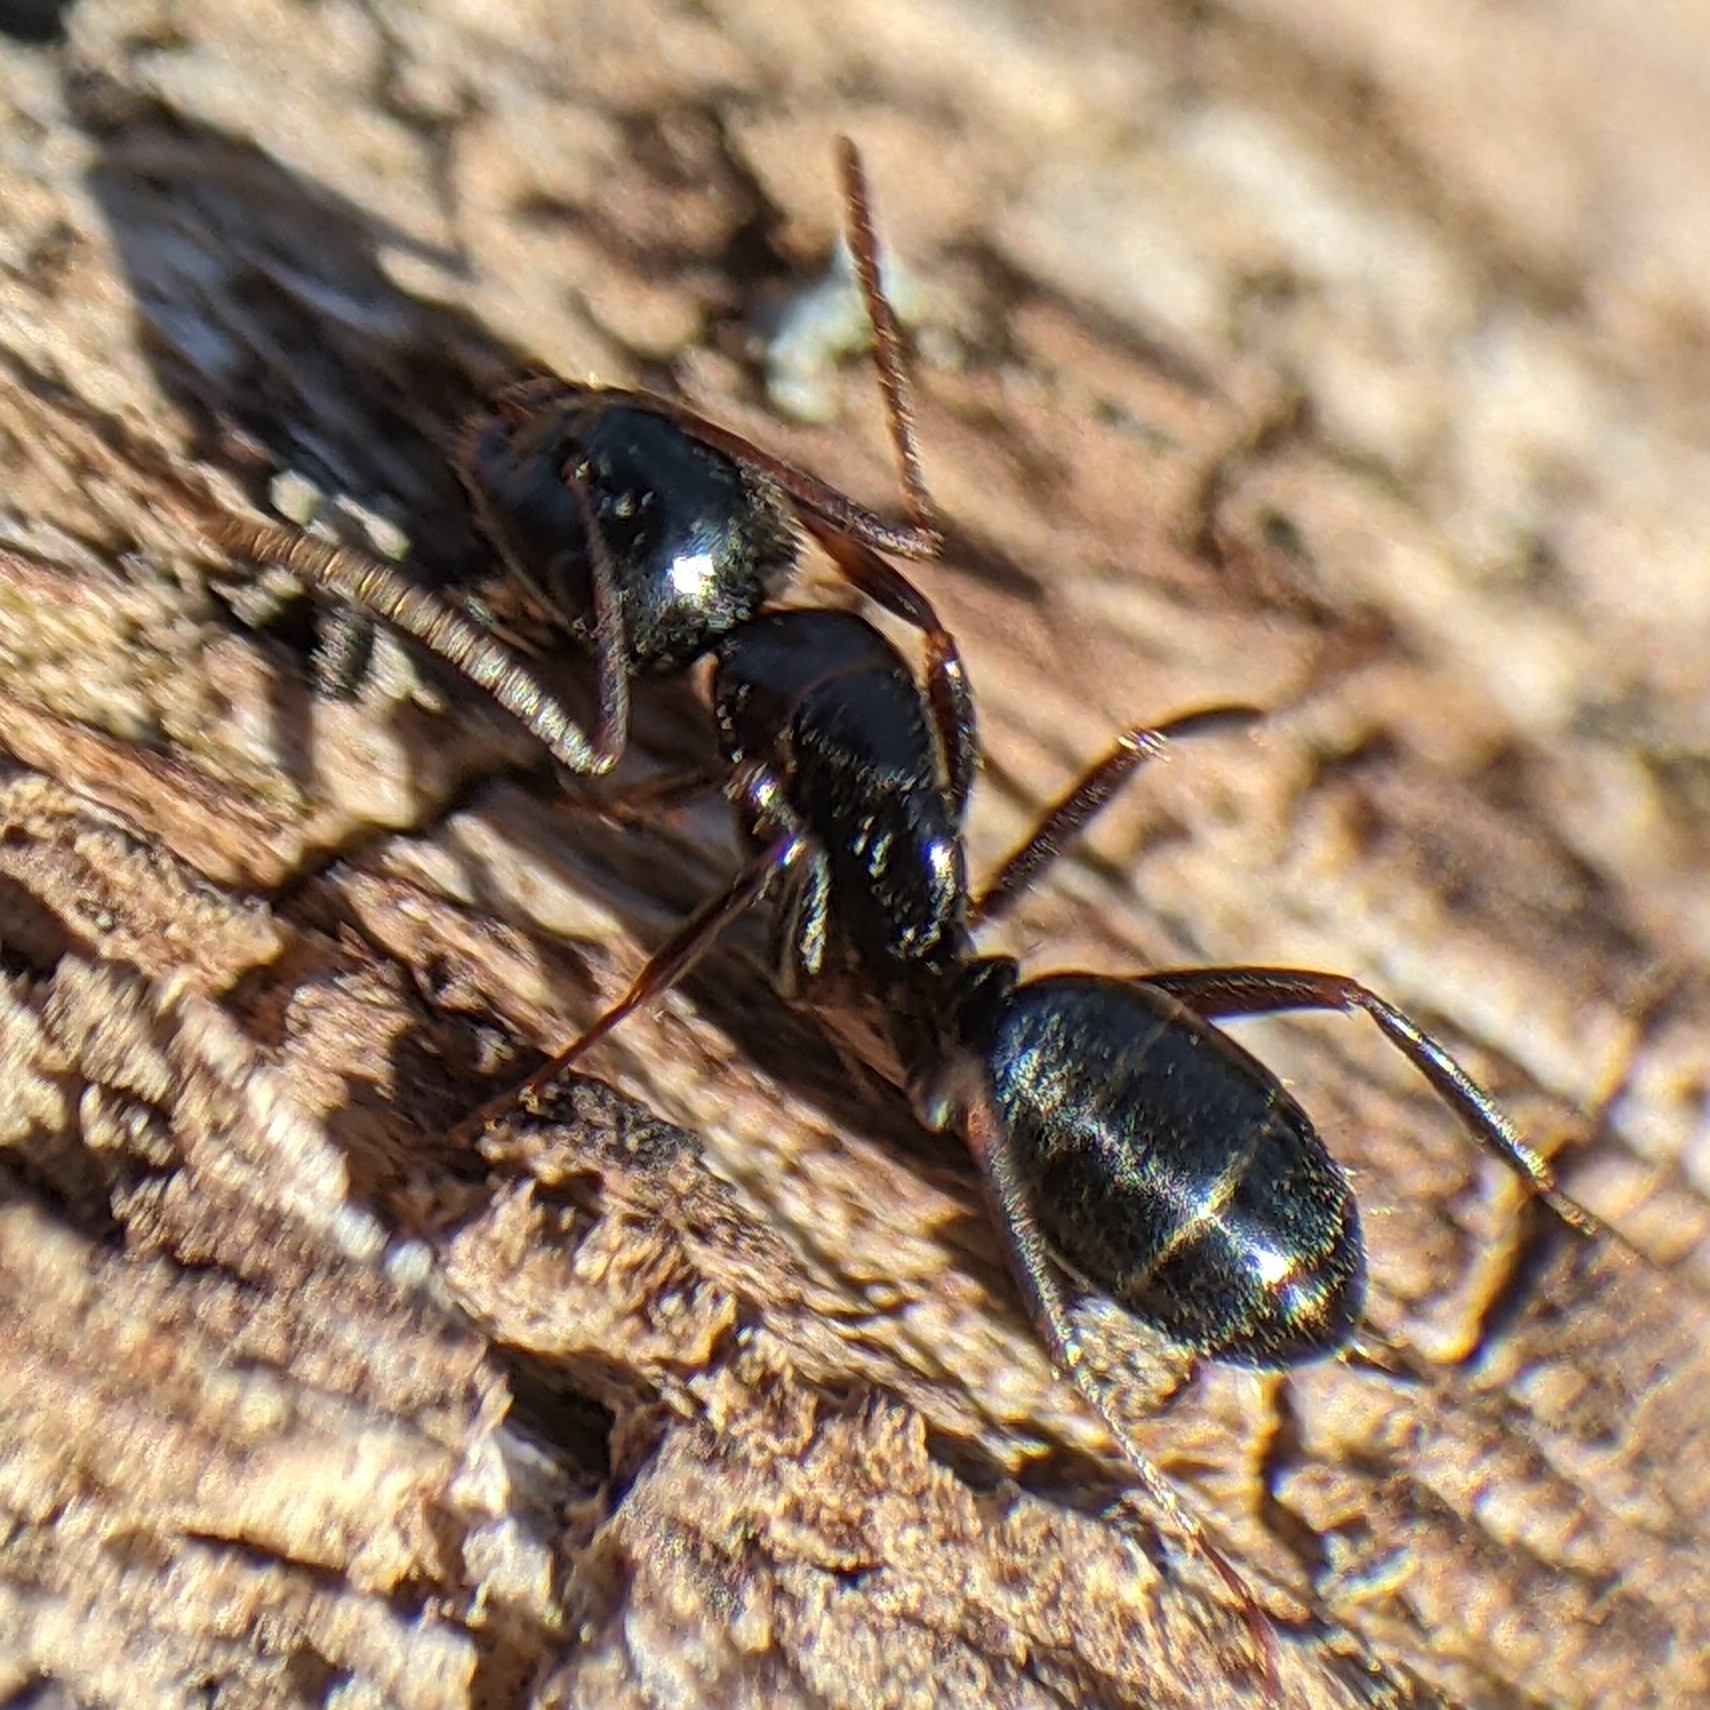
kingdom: Animalia
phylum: Arthropoda
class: Insecta
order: Hymenoptera
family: Formicidae
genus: Camponotus
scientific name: Camponotus nearcticus
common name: Smaller carpenter ant
